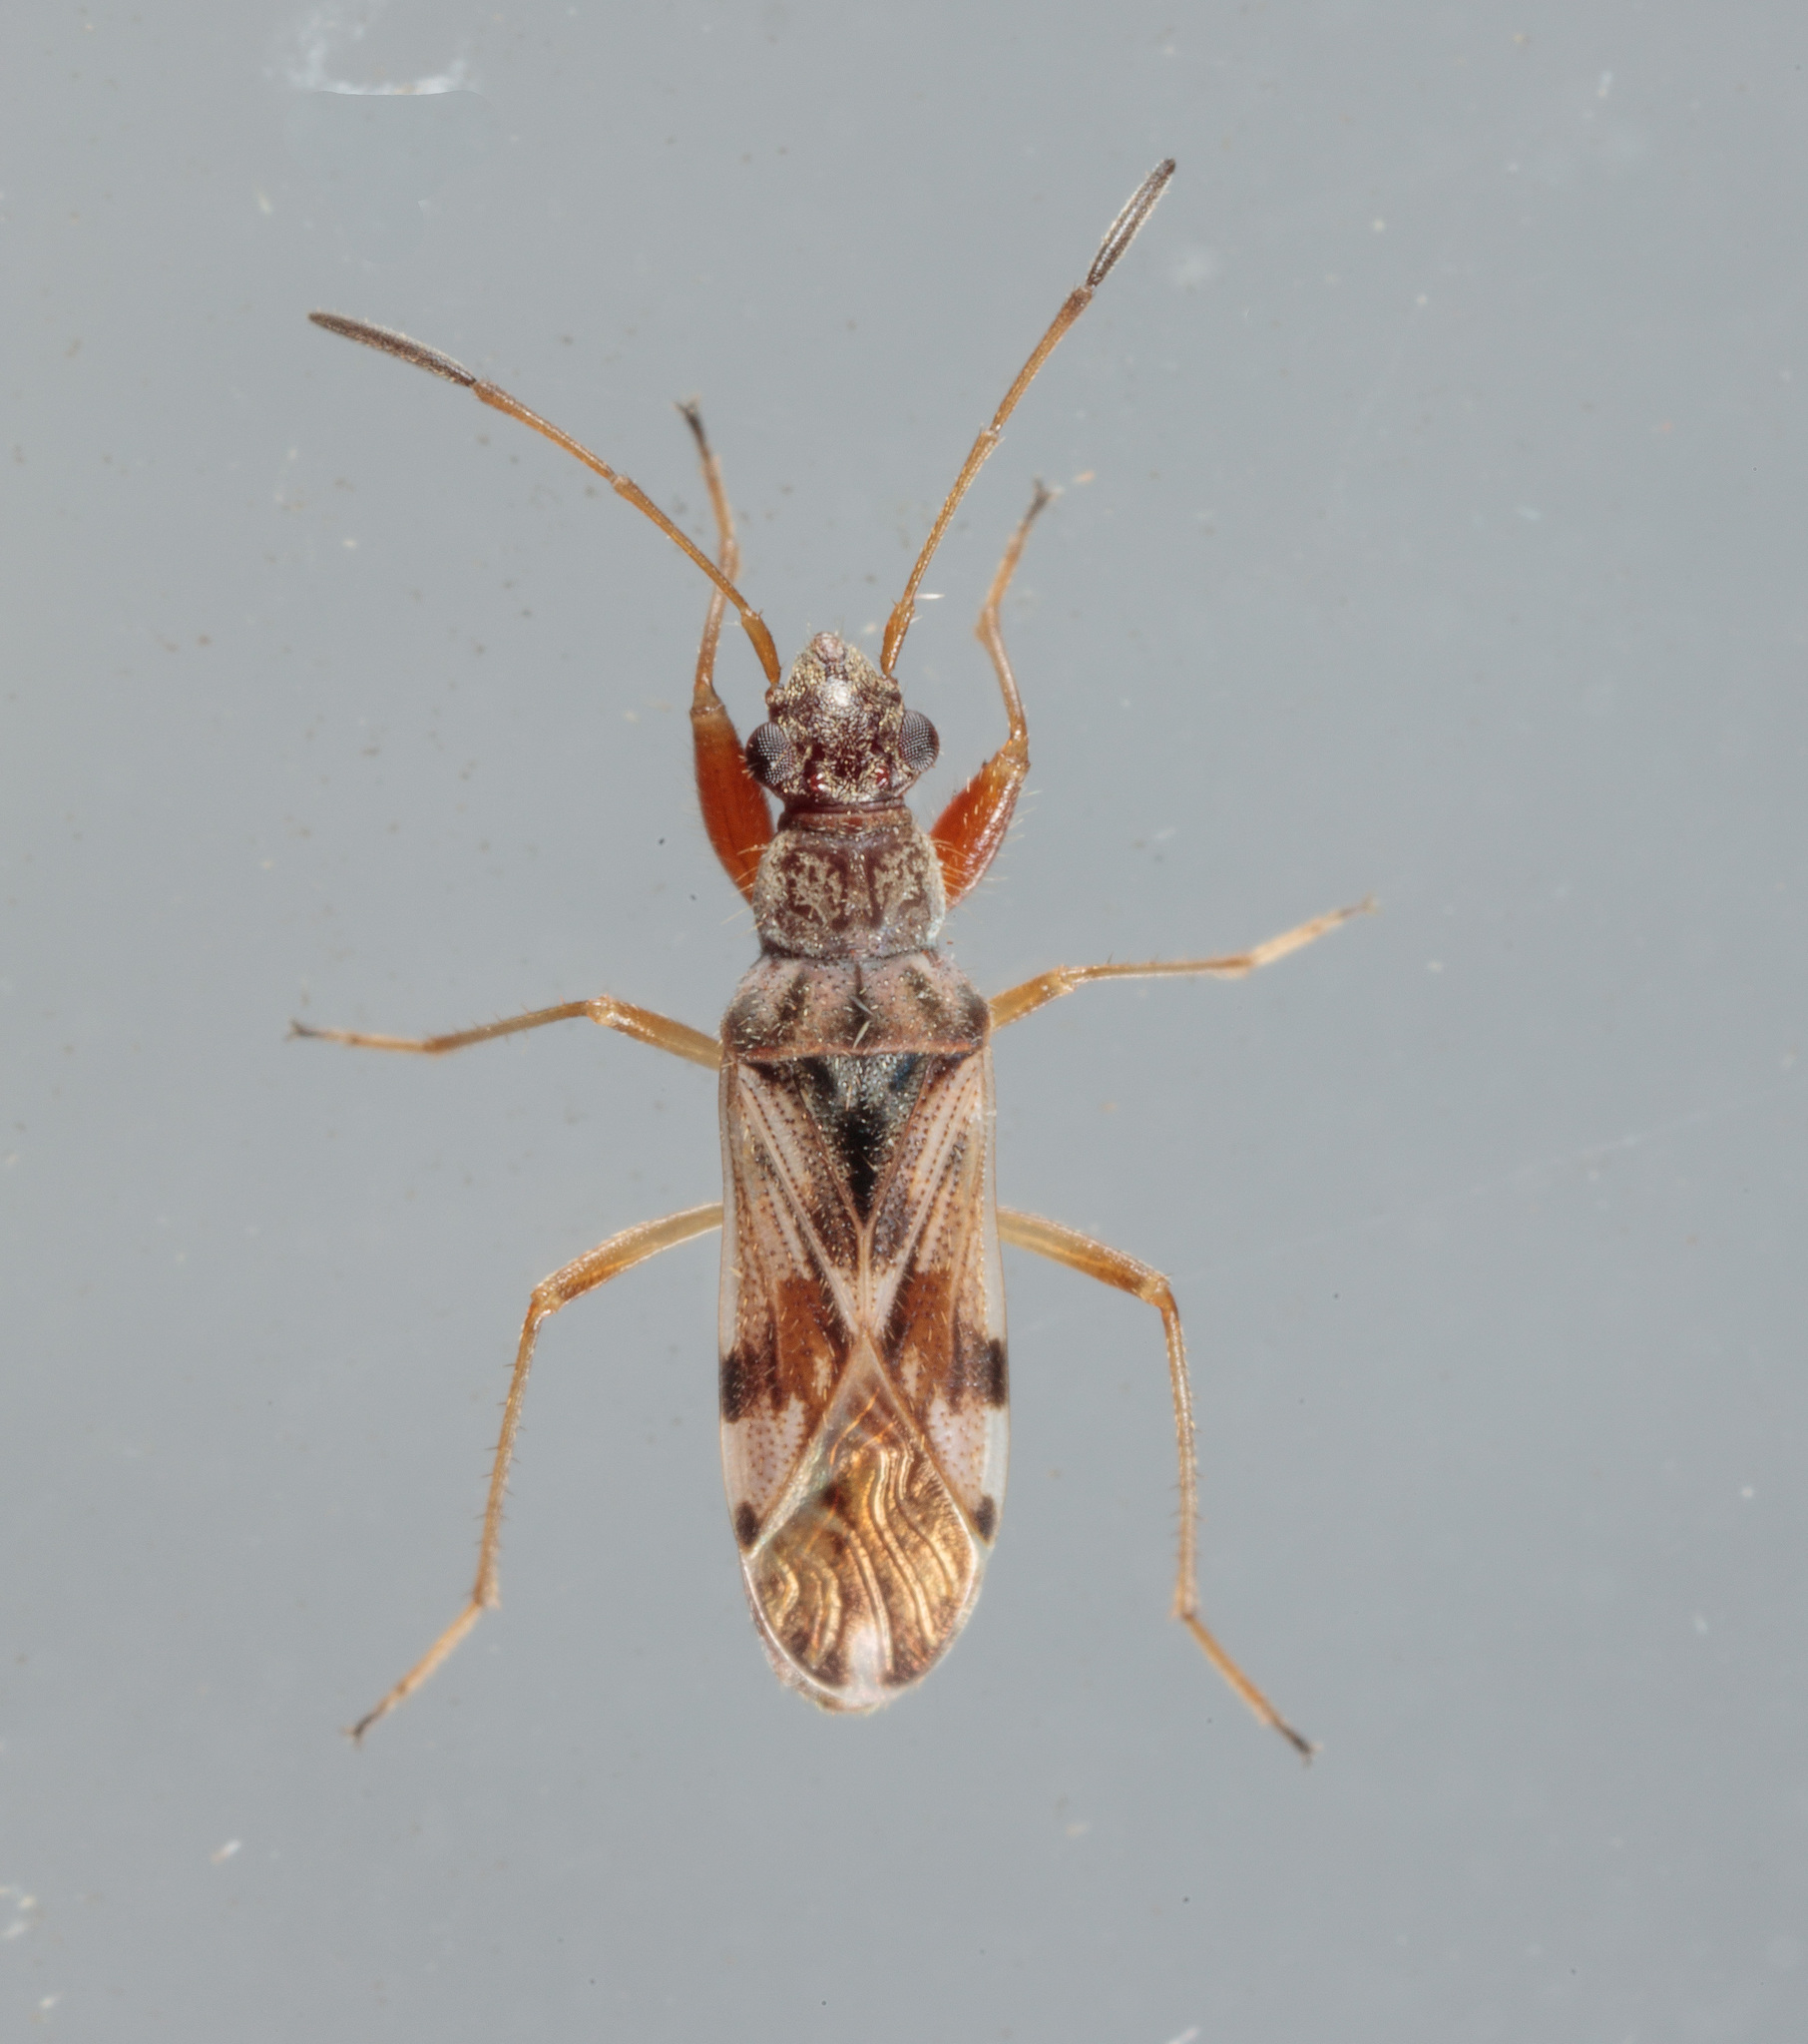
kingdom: Animalia
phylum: Arthropoda
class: Insecta
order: Hemiptera
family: Rhyparochromidae
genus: Neopamera
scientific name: Neopamera bilobata
